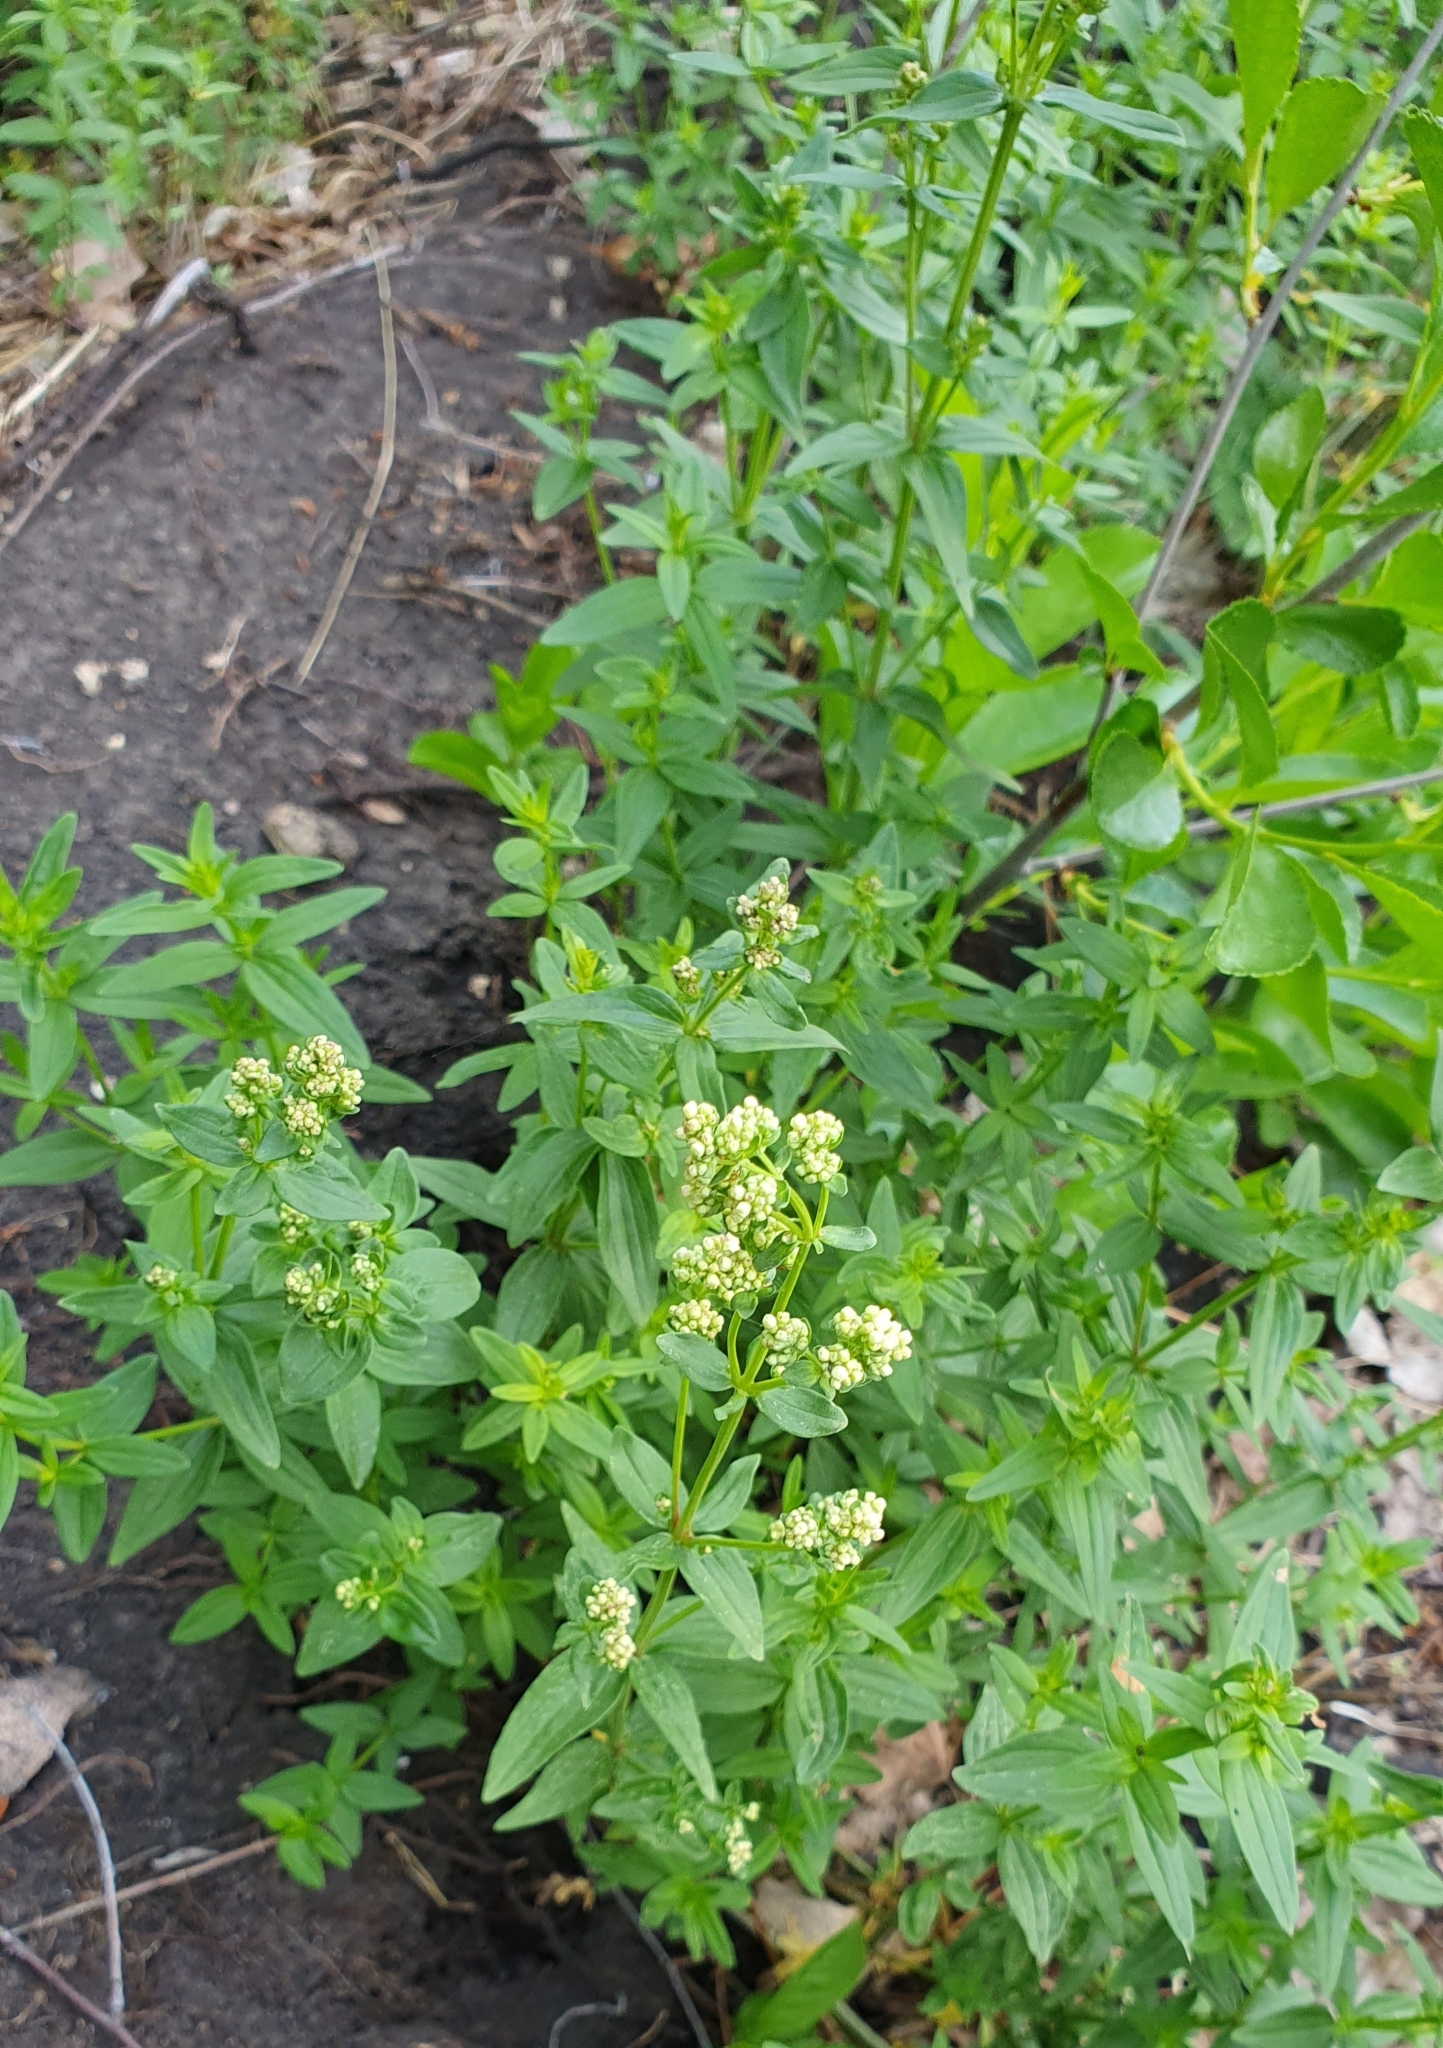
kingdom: Plantae
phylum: Tracheophyta
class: Magnoliopsida
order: Gentianales
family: Rubiaceae
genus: Galium
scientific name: Galium rubioides
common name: European bedstraw
